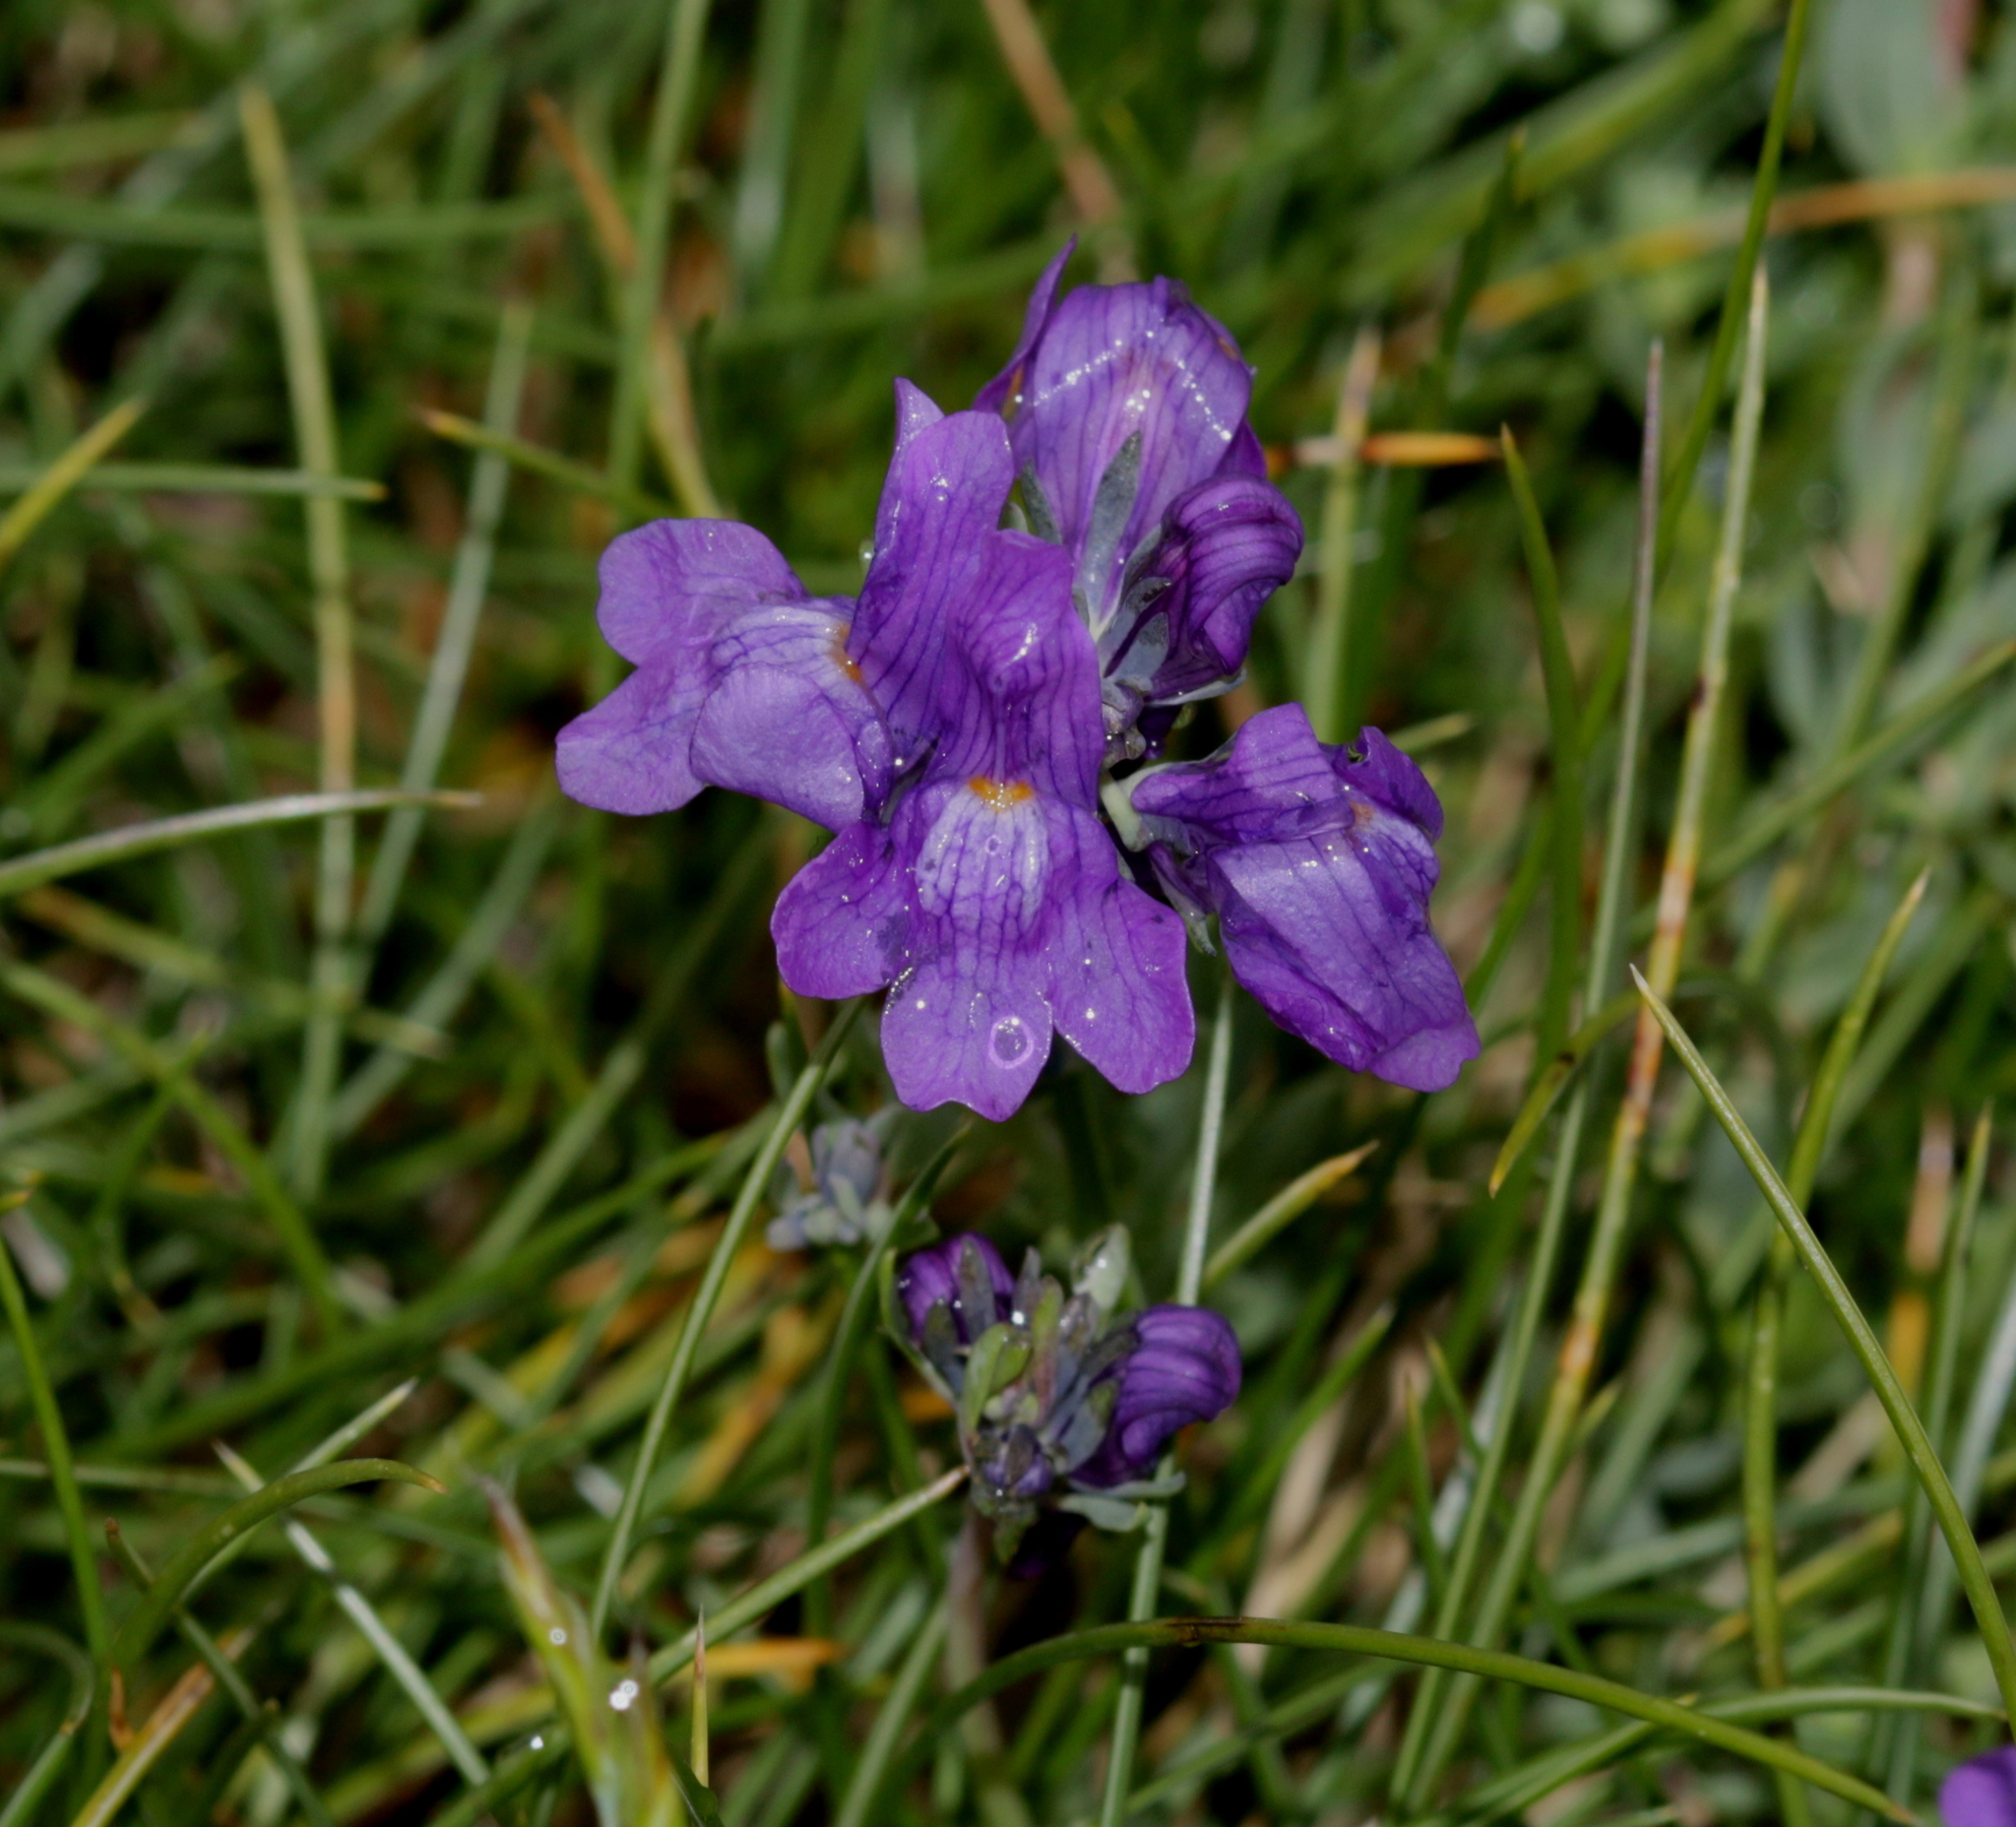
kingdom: Plantae
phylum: Tracheophyta
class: Magnoliopsida
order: Lamiales
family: Plantaginaceae
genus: Linaria
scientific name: Linaria alpina
